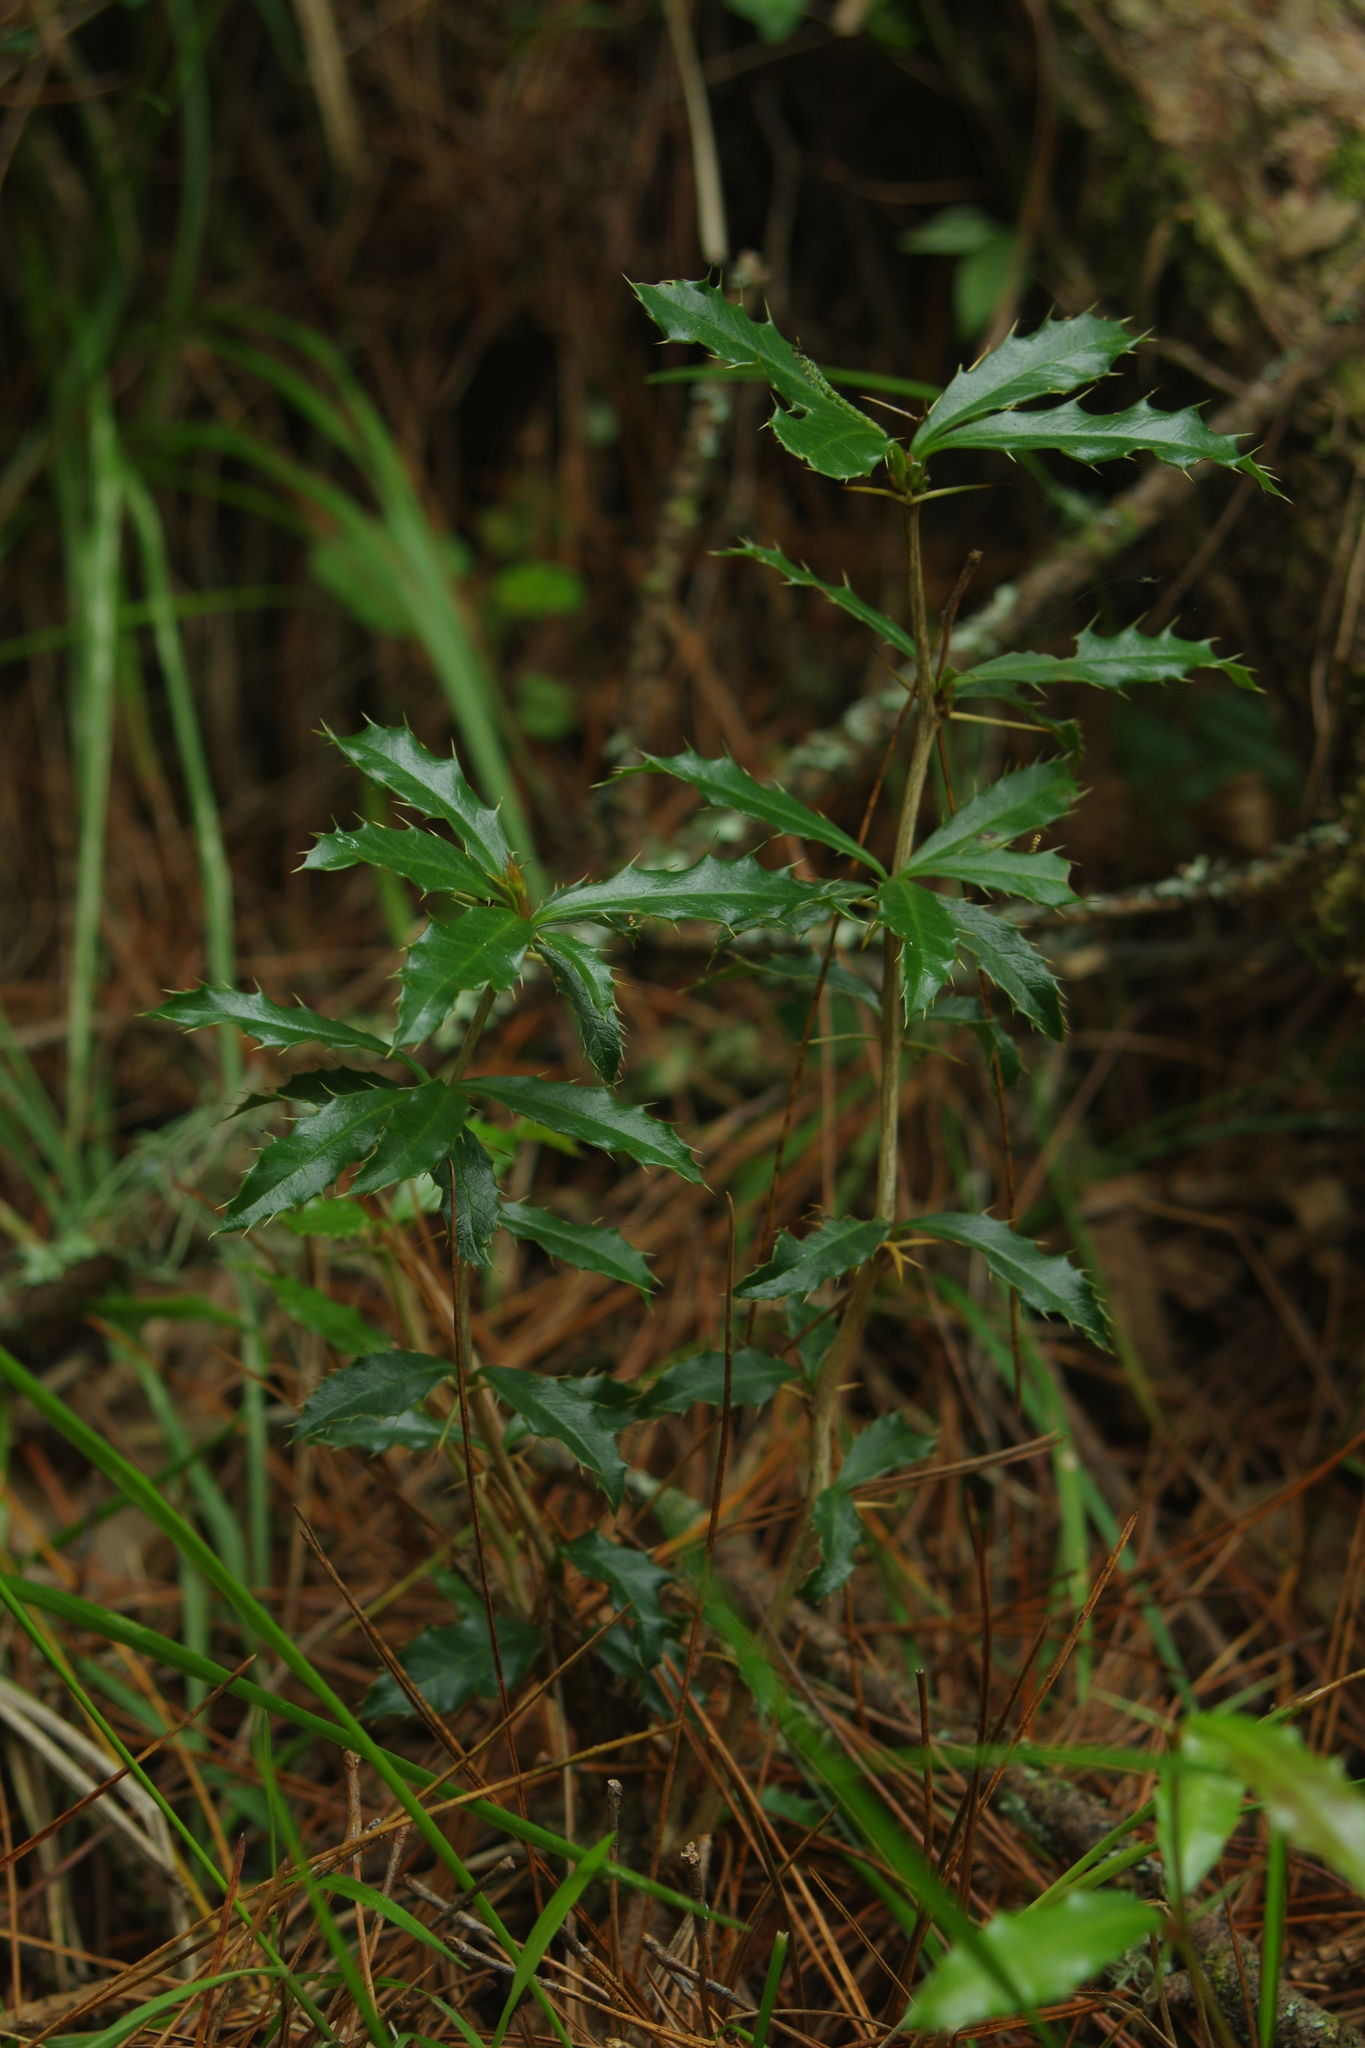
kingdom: Plantae
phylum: Tracheophyta
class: Magnoliopsida
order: Ranunculales
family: Berberidaceae
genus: Berberis
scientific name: Berberis kawakamii
